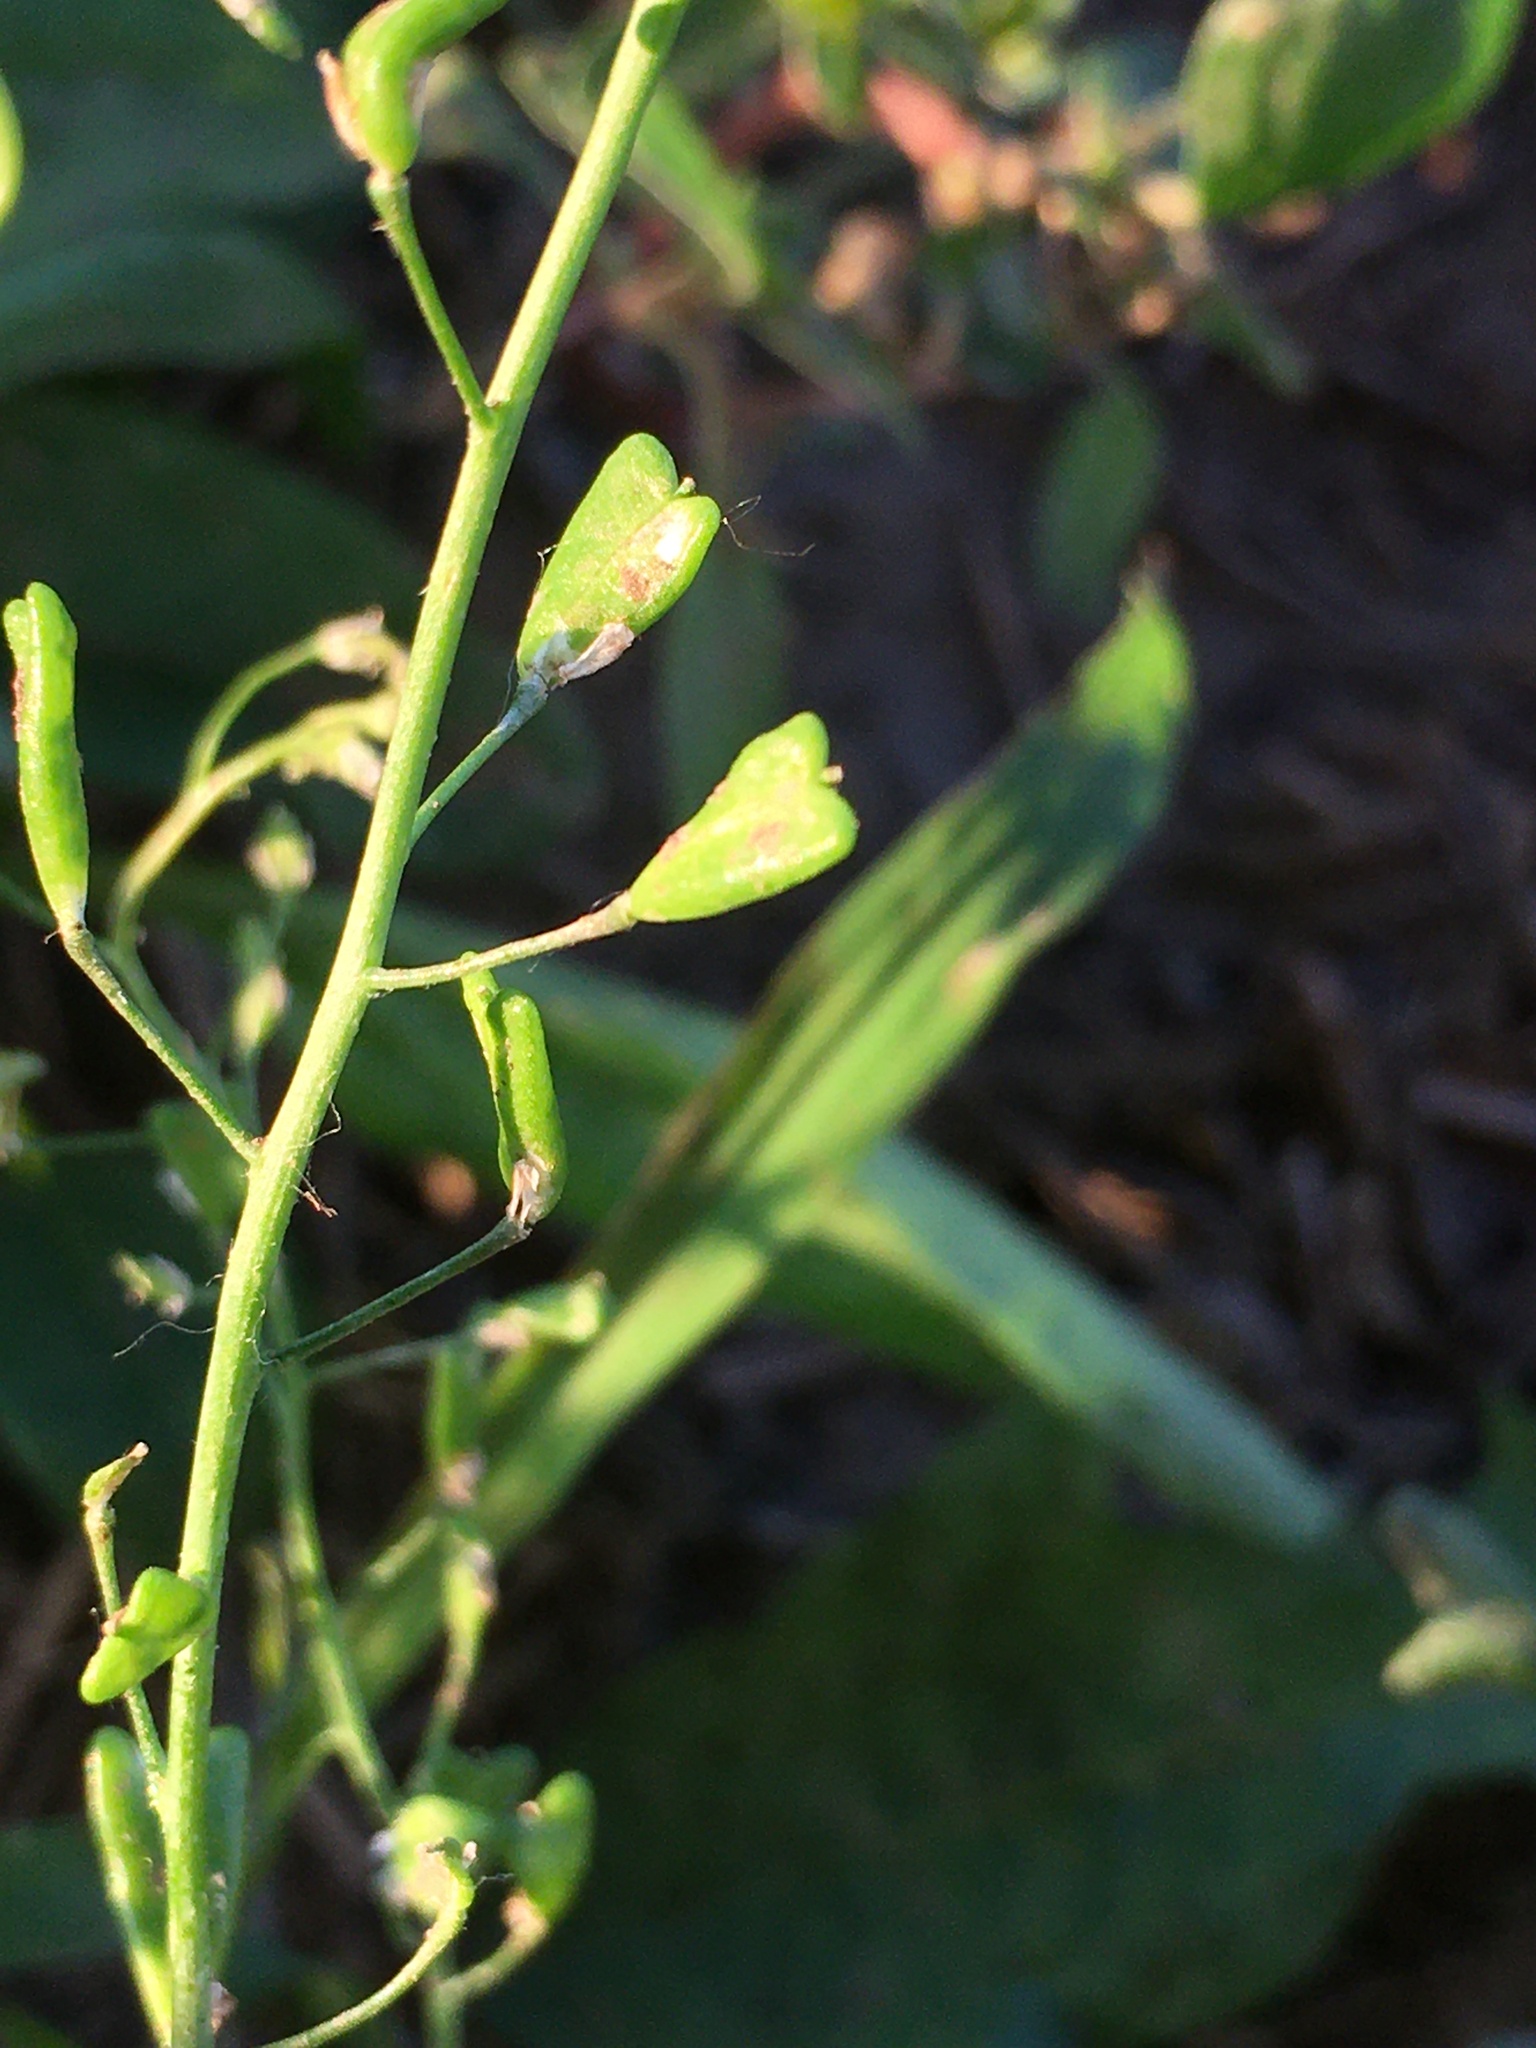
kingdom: Plantae
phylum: Tracheophyta
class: Magnoliopsida
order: Brassicales
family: Brassicaceae
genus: Capsella
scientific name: Capsella bursa-pastoris
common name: Shepherd's purse
